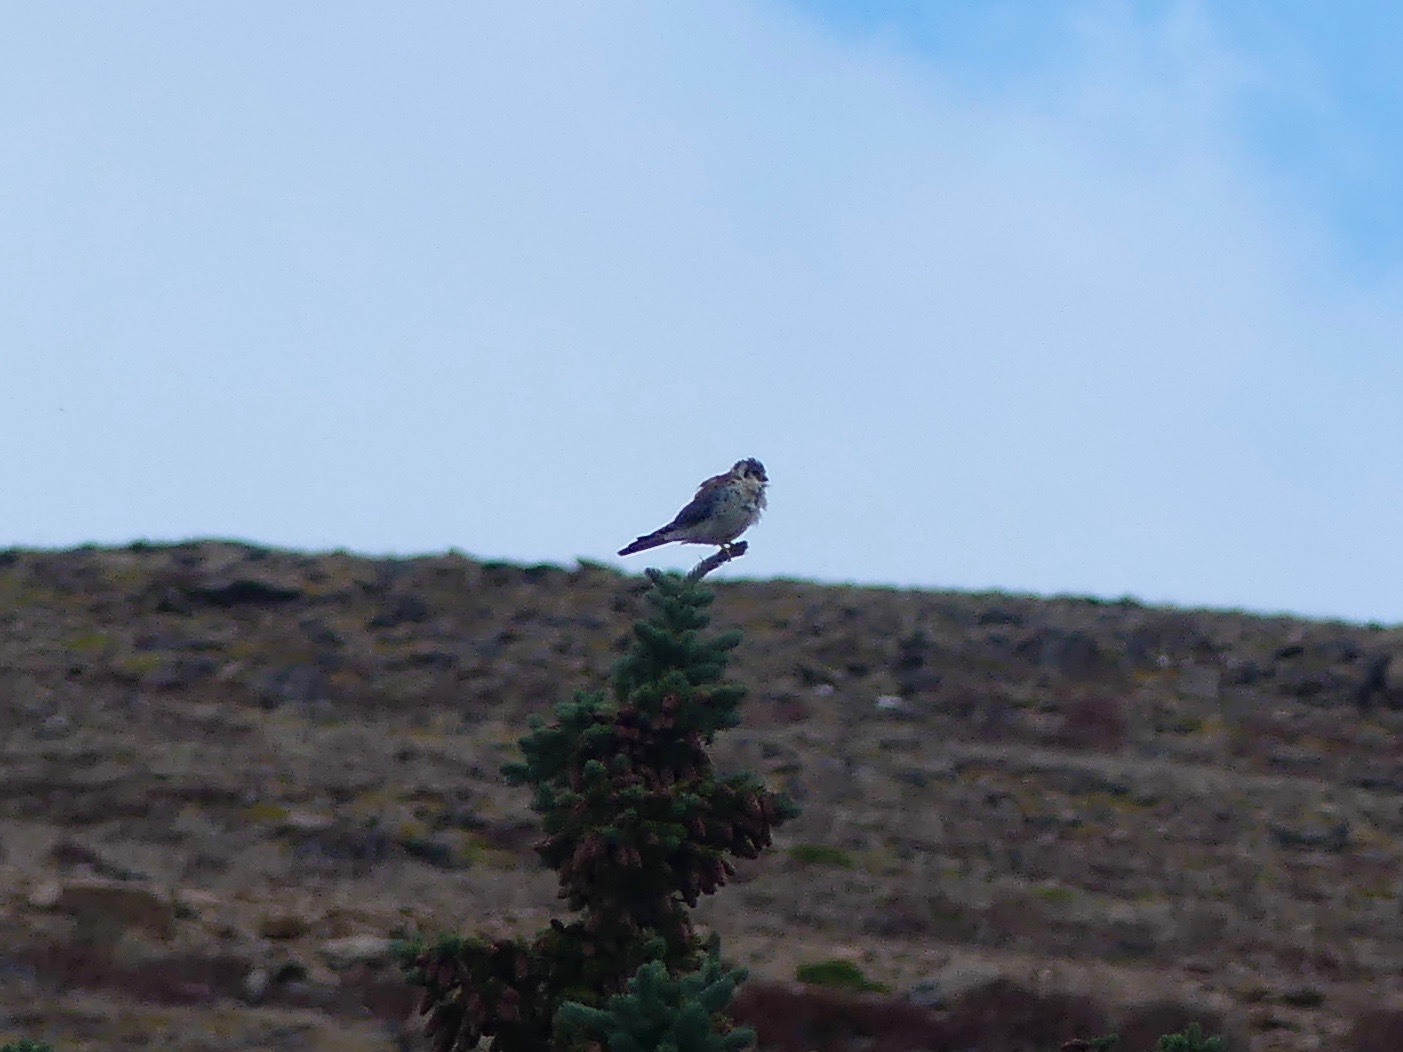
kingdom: Animalia
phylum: Chordata
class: Aves
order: Falconiformes
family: Falconidae
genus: Falco
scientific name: Falco sparverius
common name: American kestrel
